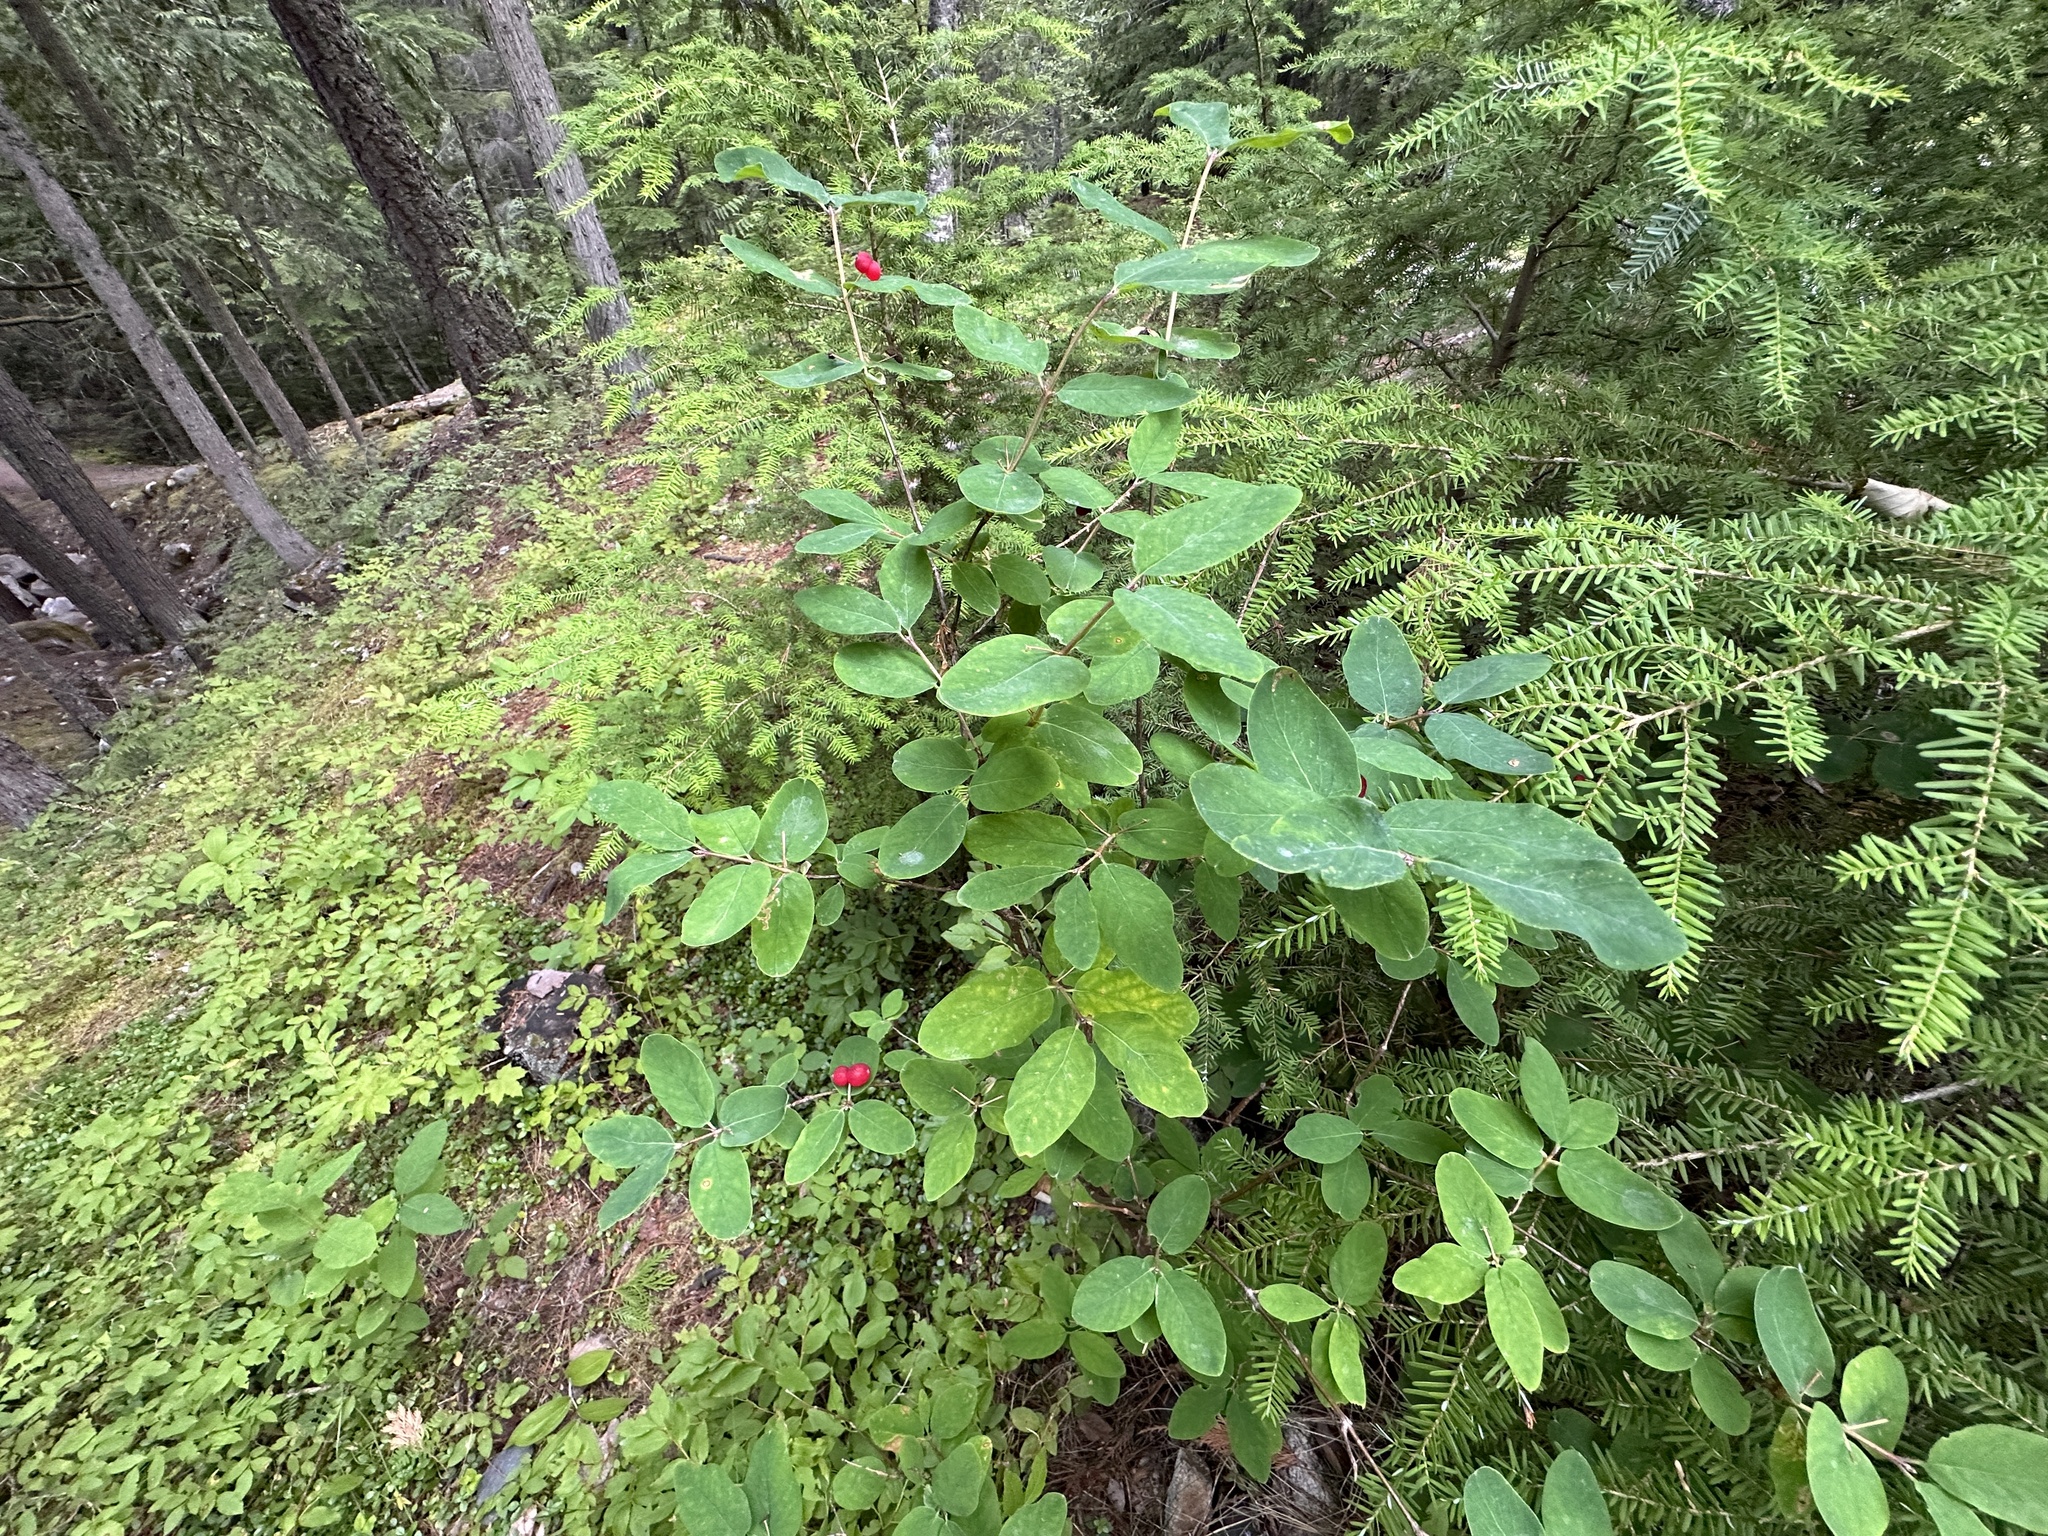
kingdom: Plantae
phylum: Tracheophyta
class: Magnoliopsida
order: Dipsacales
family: Caprifoliaceae
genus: Lonicera
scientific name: Lonicera utahensis
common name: Utah honeysuckle
